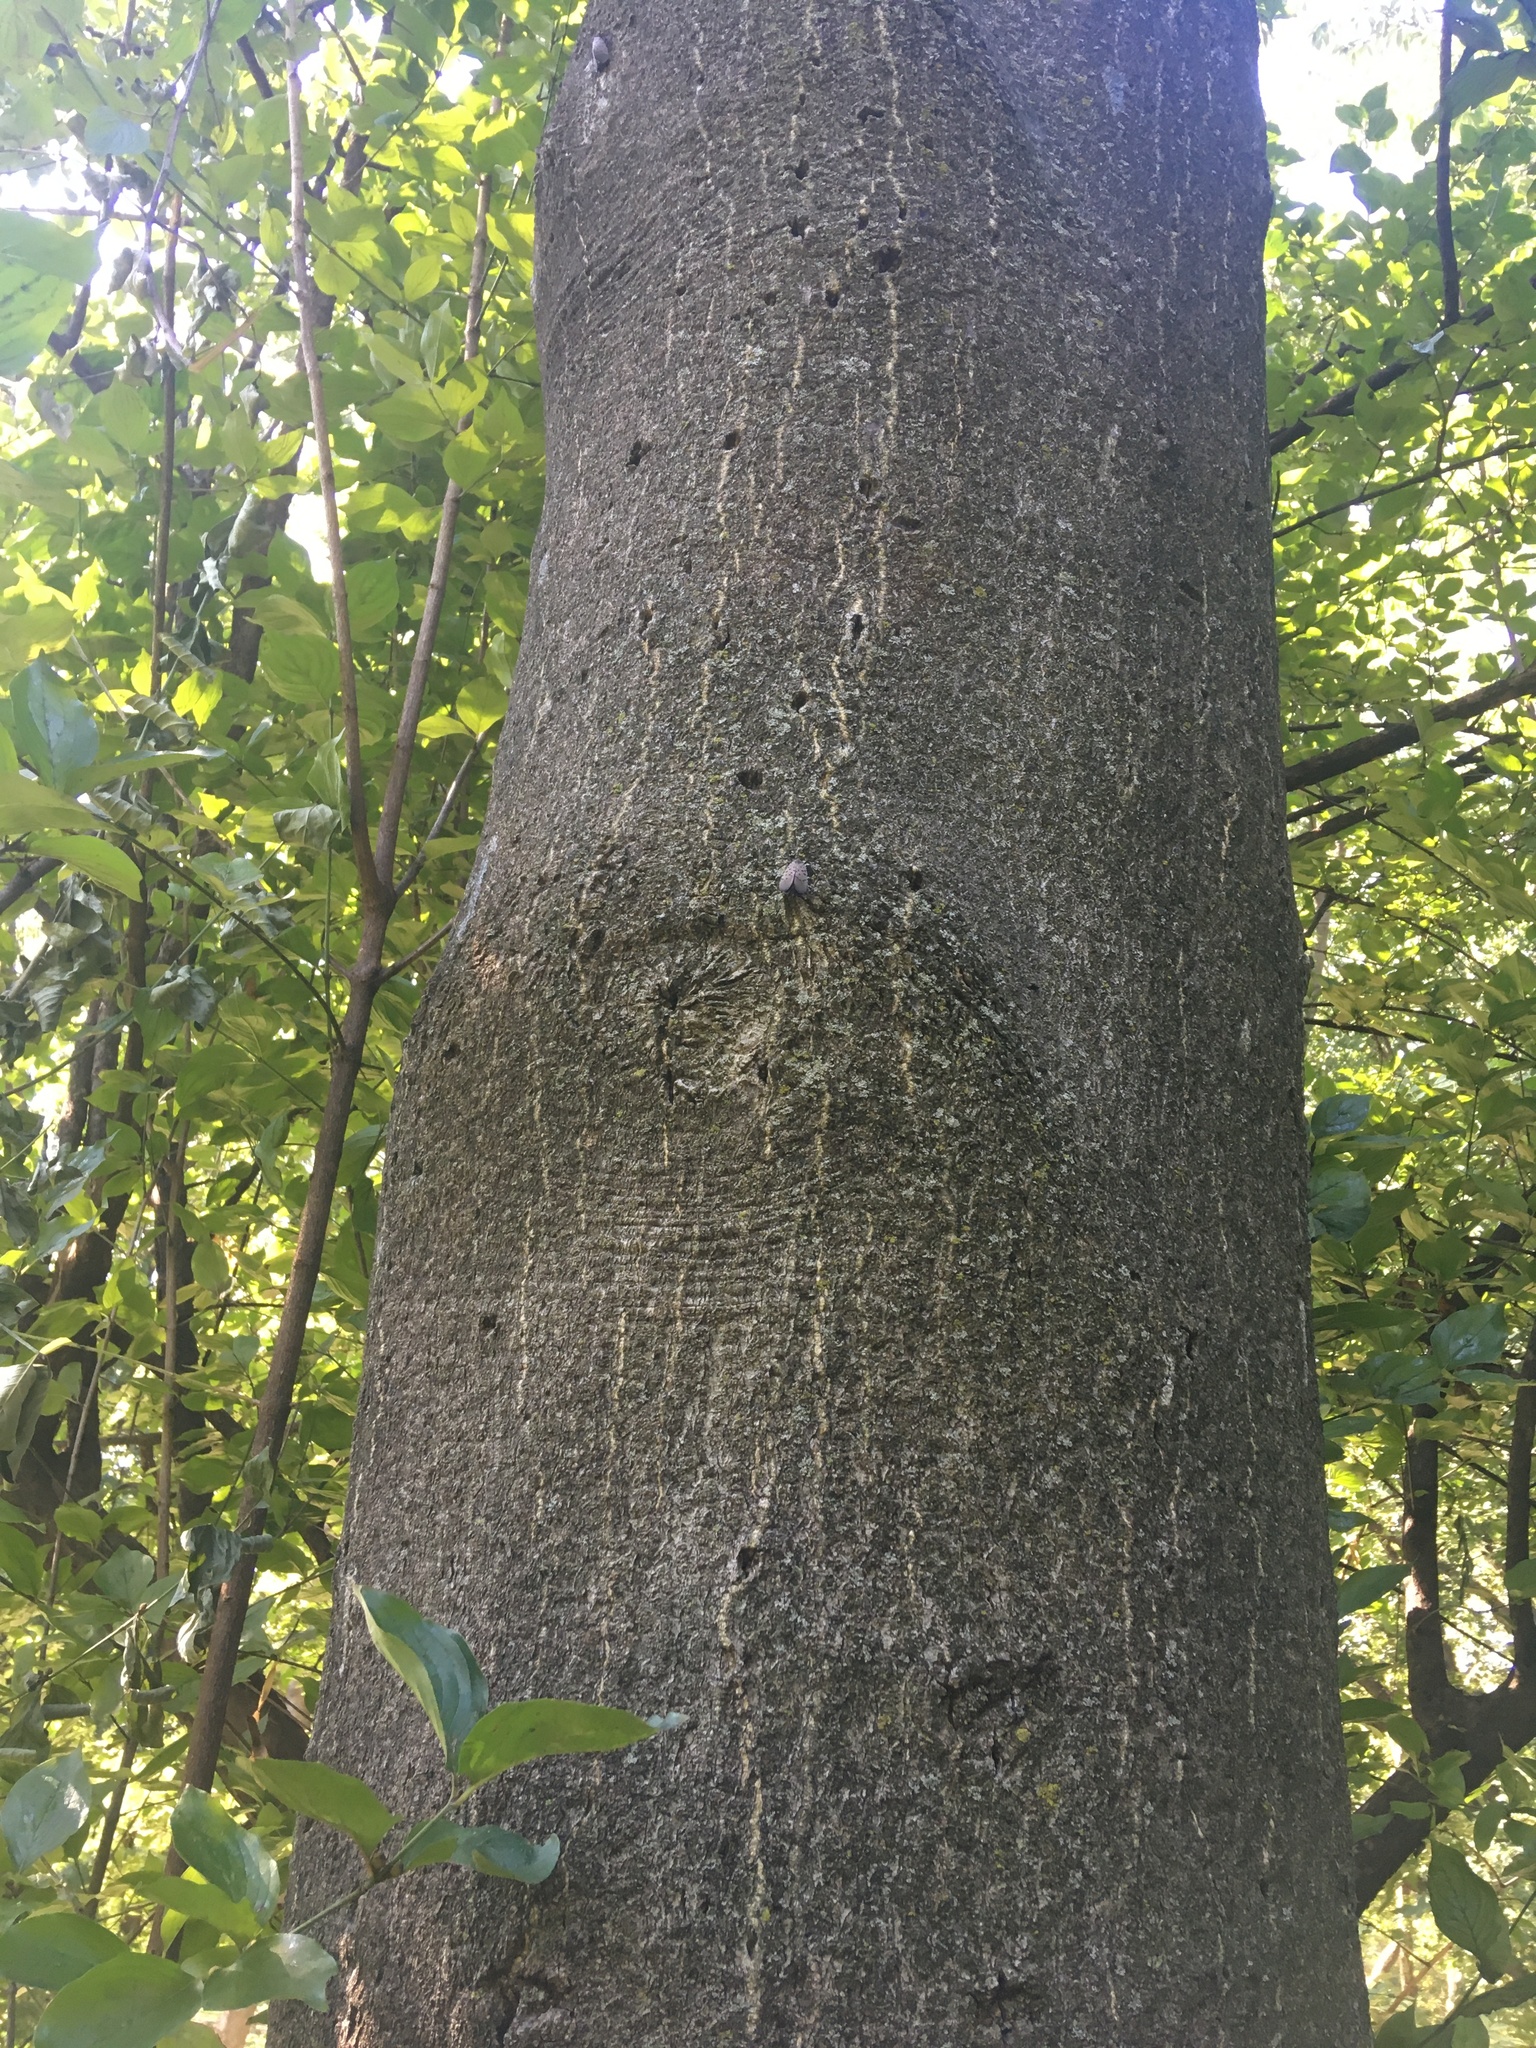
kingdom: Animalia
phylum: Arthropoda
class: Insecta
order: Hemiptera
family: Fulgoridae
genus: Lycorma
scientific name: Lycorma delicatula
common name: Spotted lanternfly
